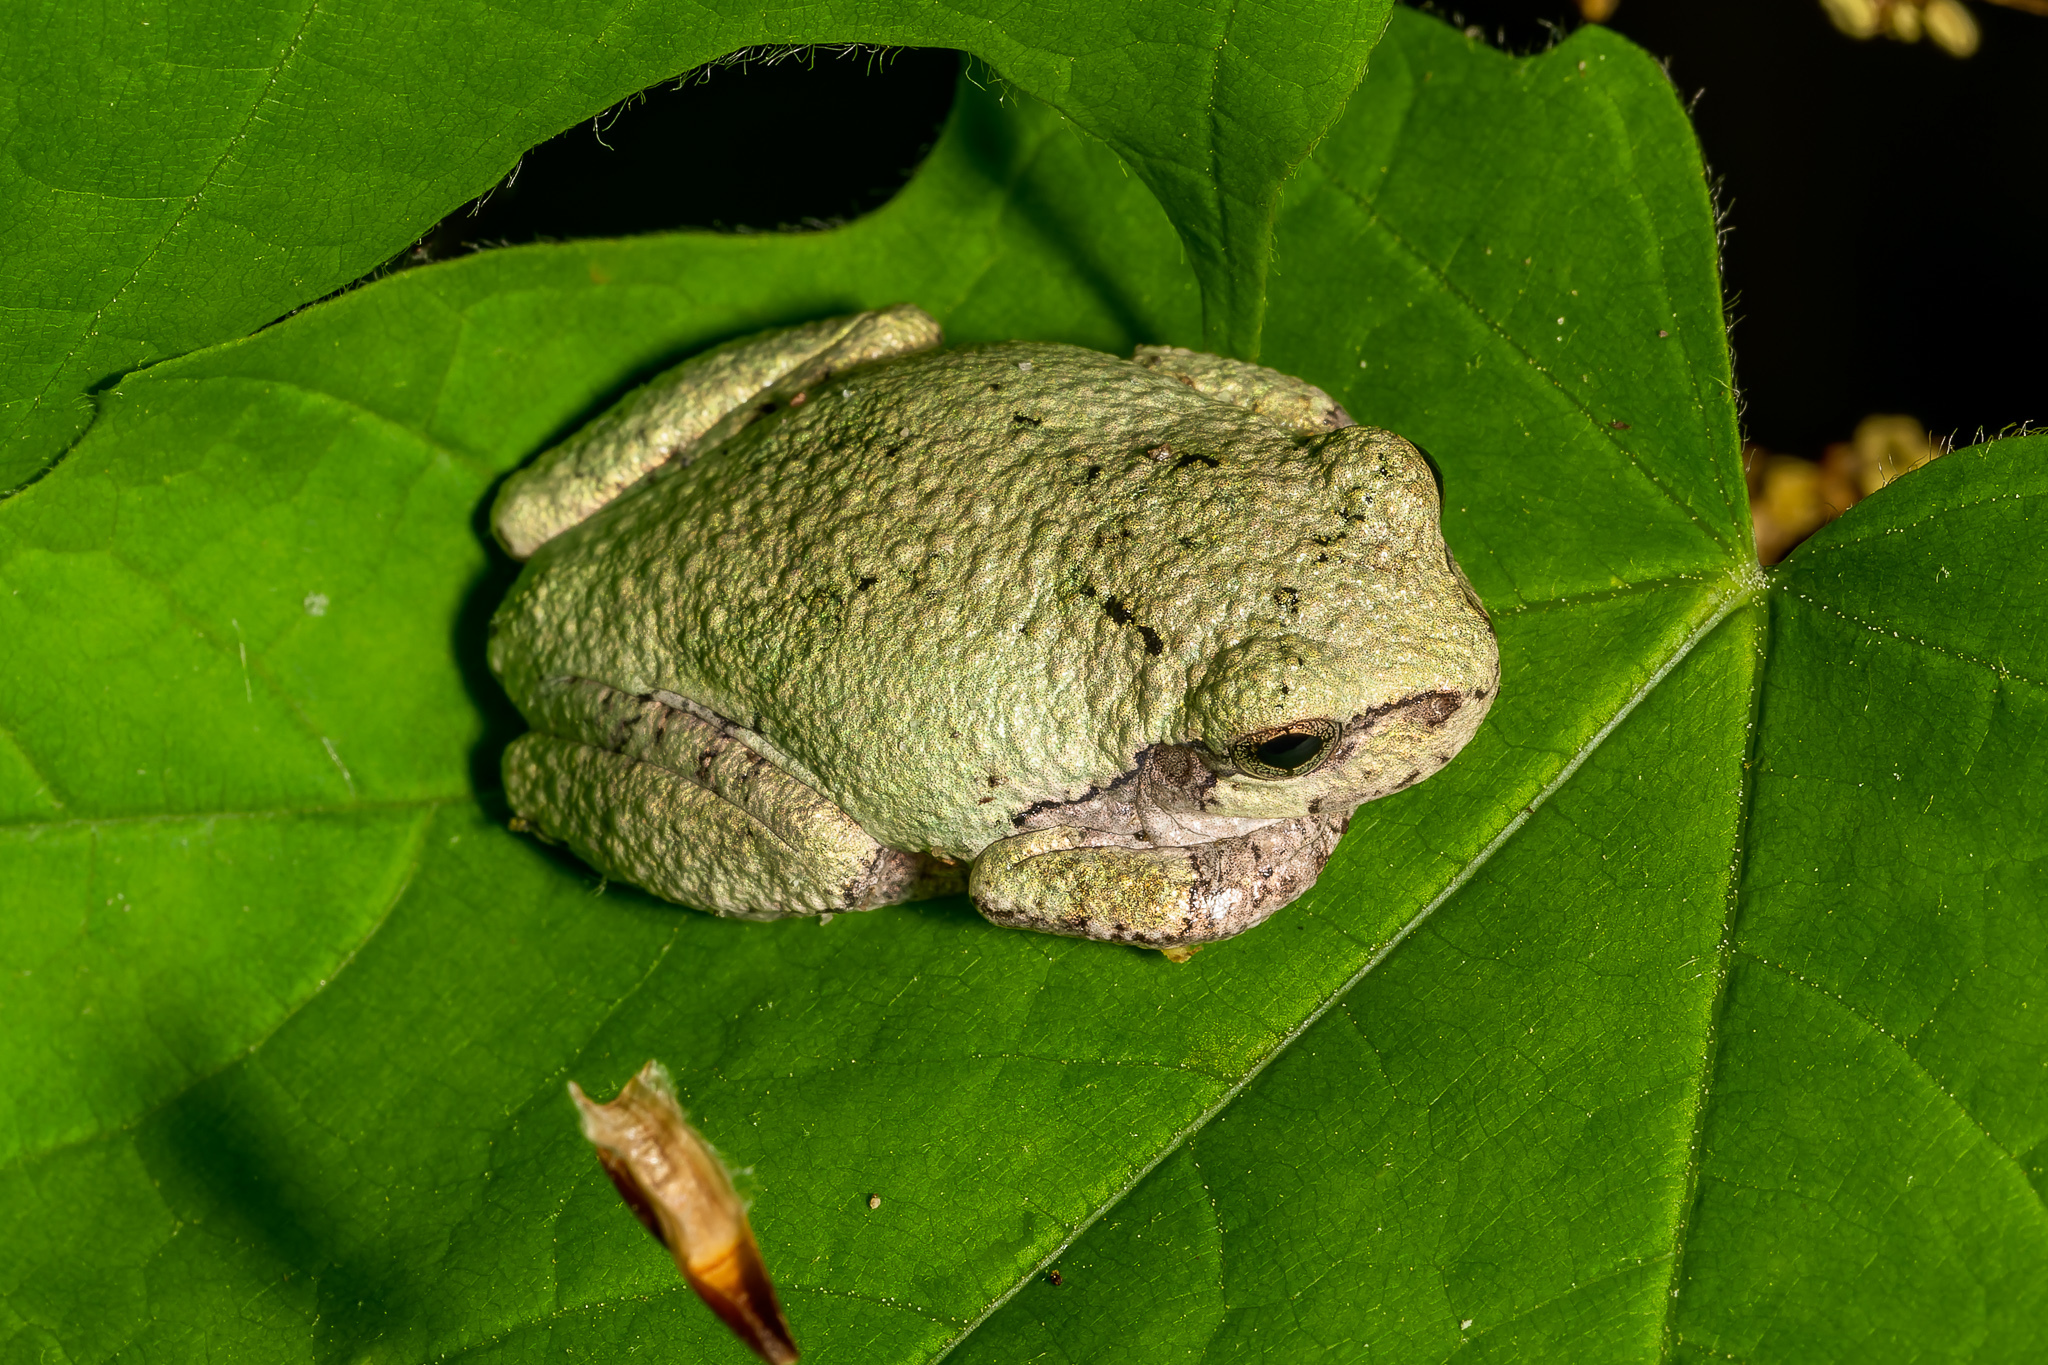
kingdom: Animalia
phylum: Chordata
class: Amphibia
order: Anura
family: Hylidae
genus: Hyla
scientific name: Hyla
